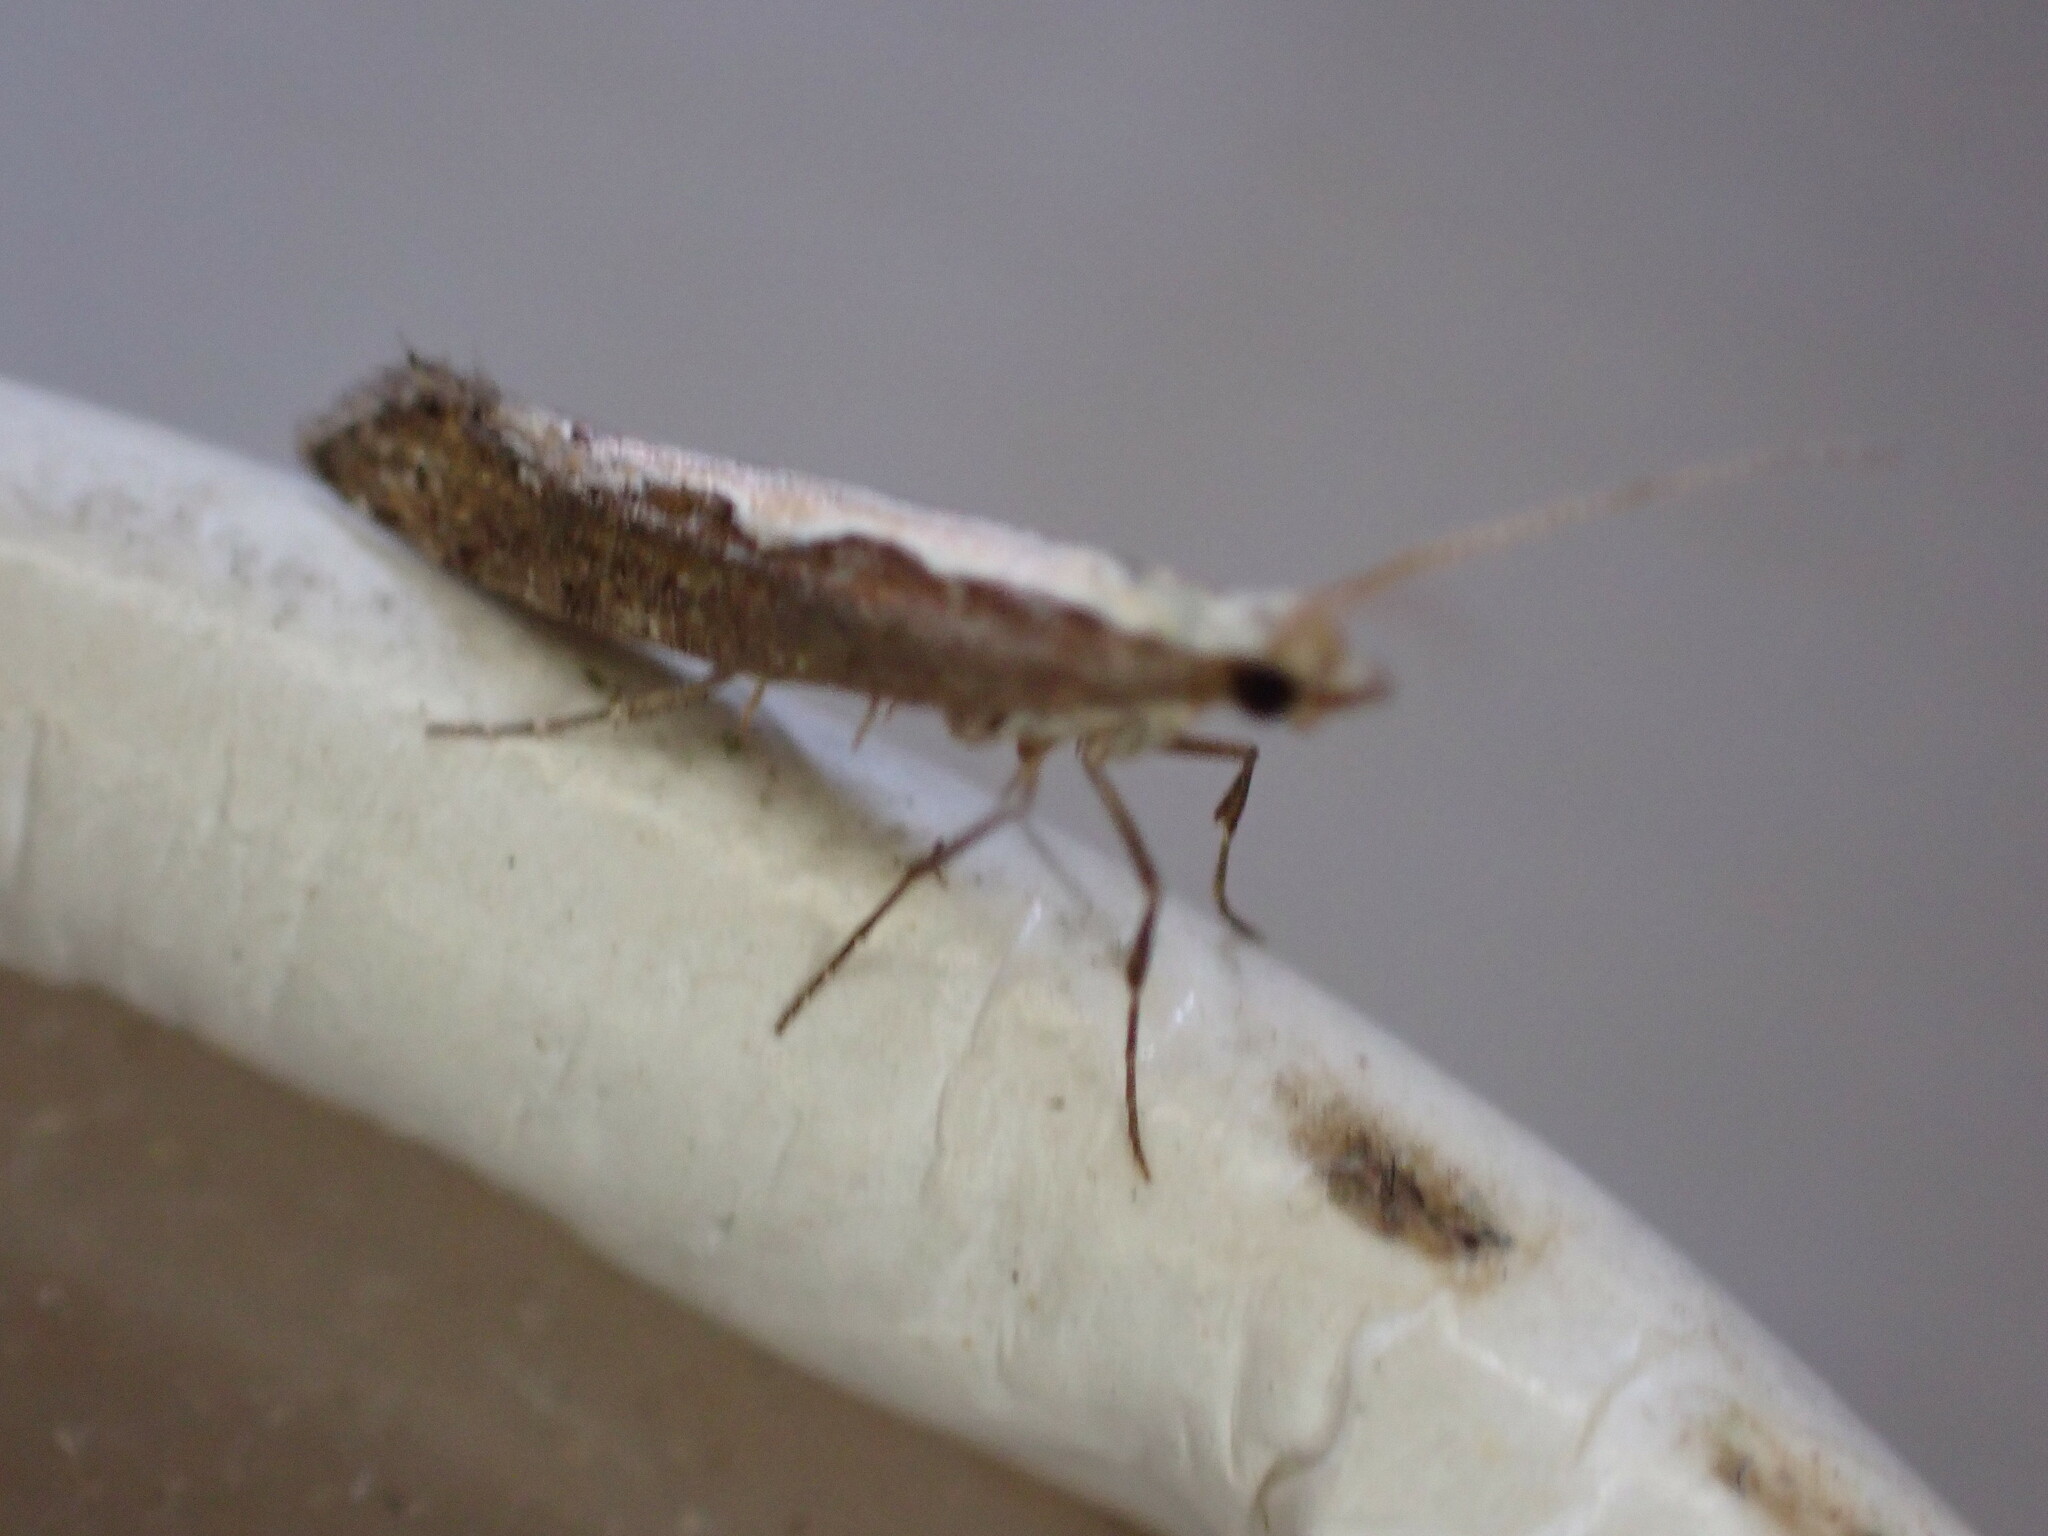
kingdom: Animalia
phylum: Arthropoda
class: Insecta
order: Lepidoptera
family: Plutellidae
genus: Plutella
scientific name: Plutella xylostella
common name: Diamond-back moth
